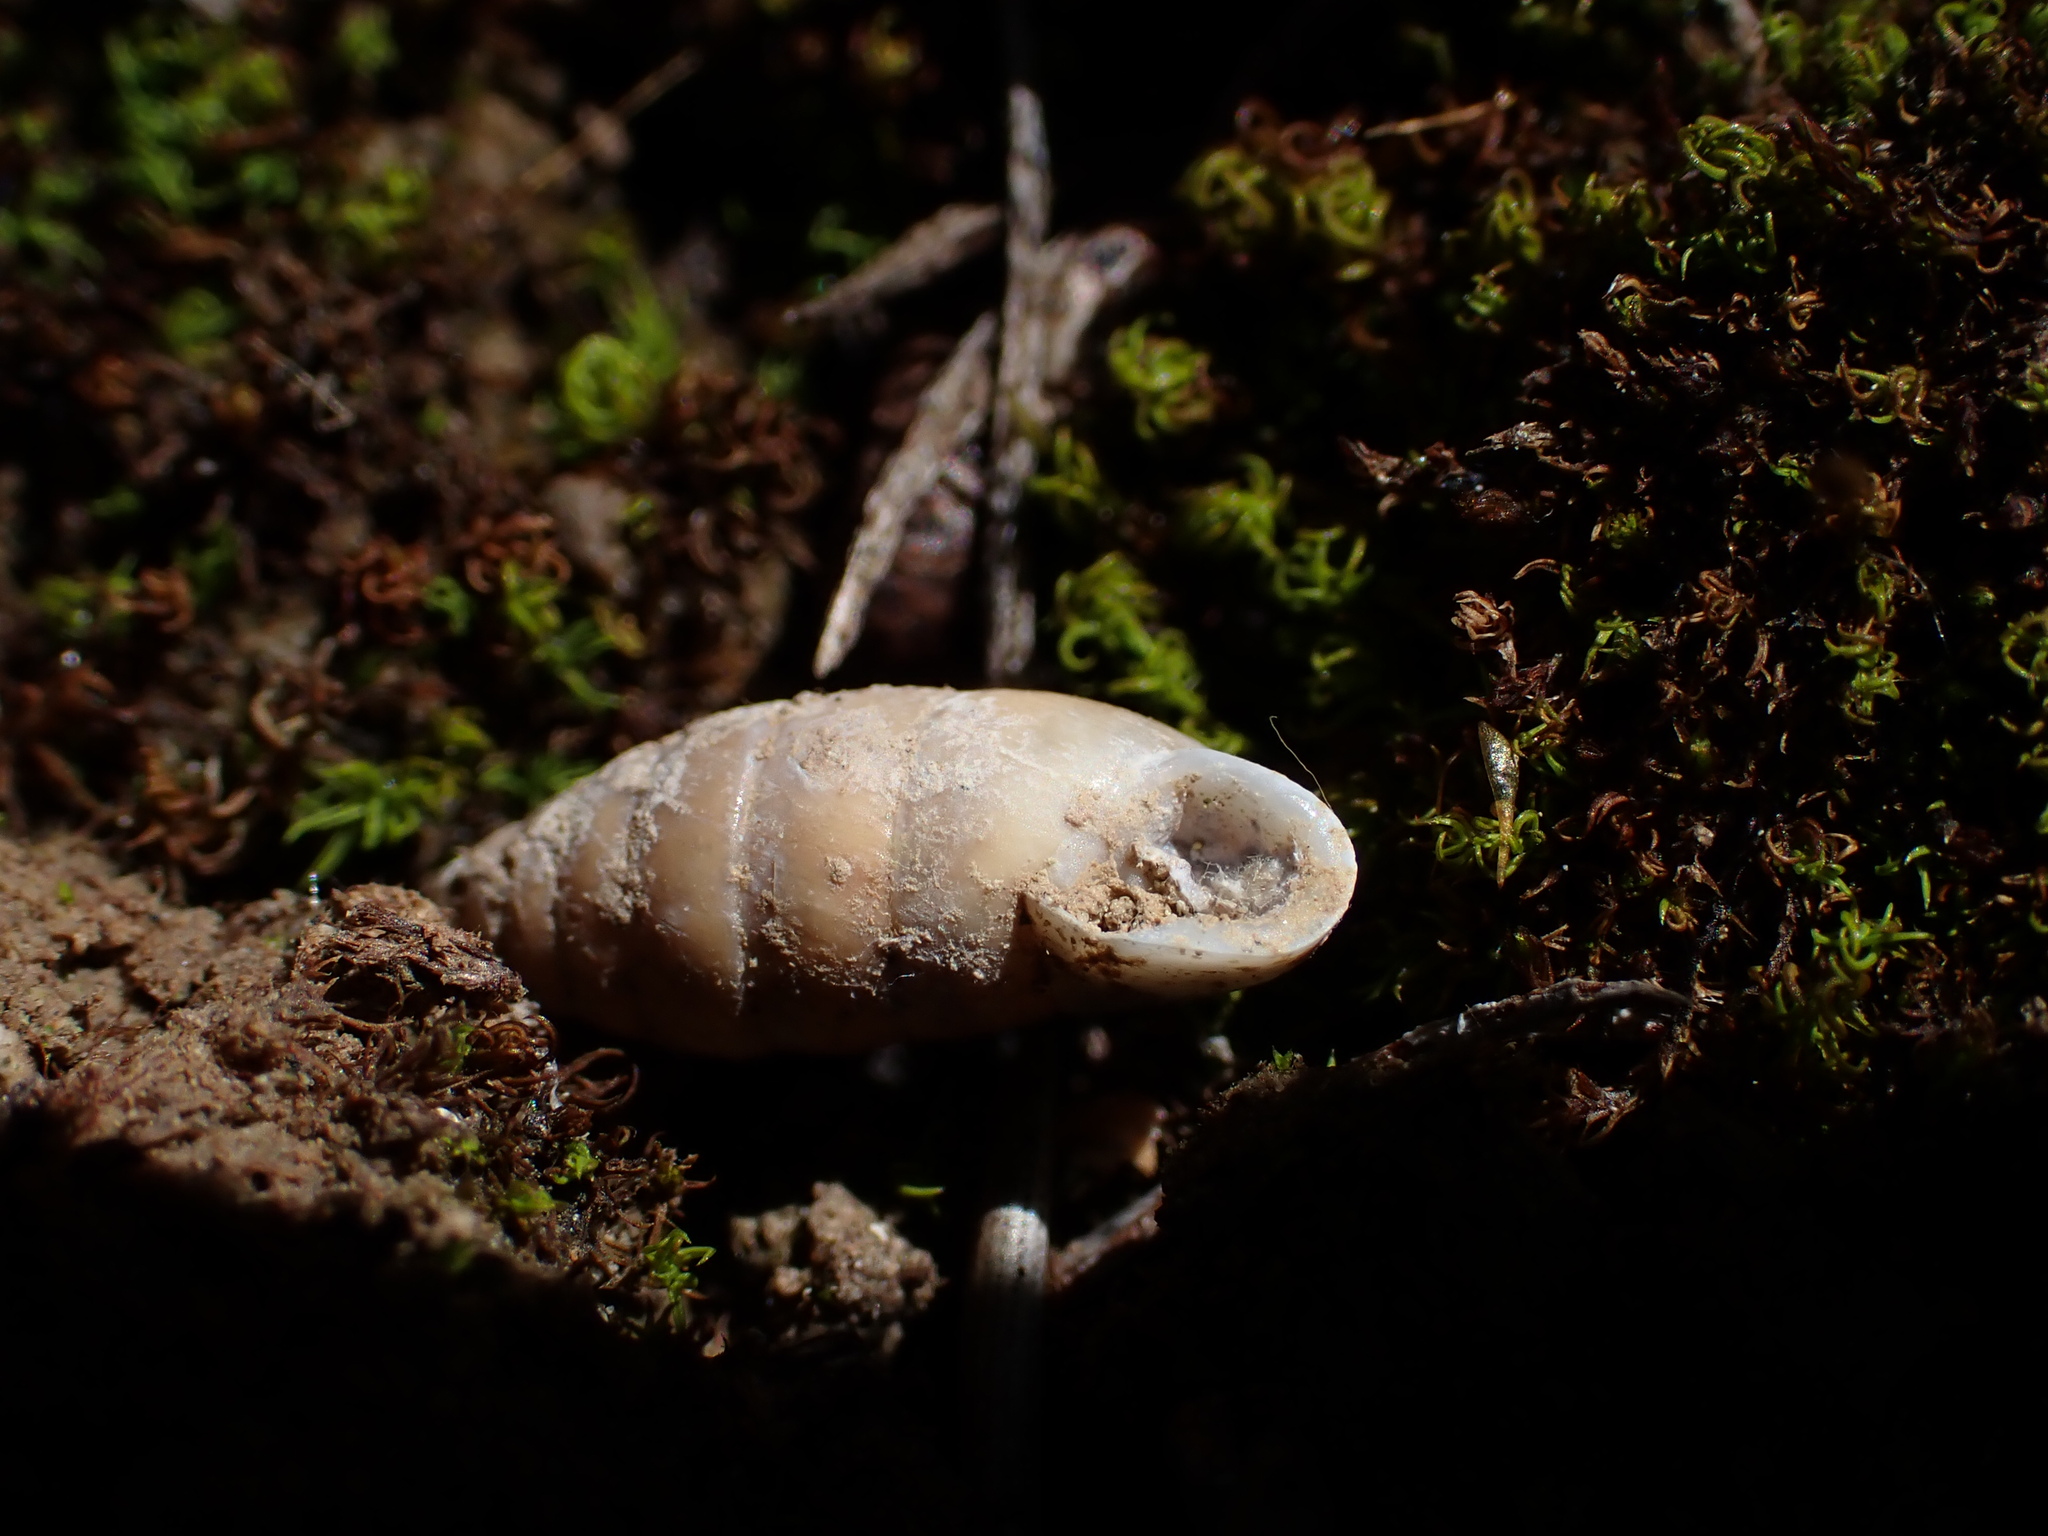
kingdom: Animalia
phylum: Mollusca
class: Gastropoda
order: Stylommatophora
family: Enidae
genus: Jaminia
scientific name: Jaminia quadridens
